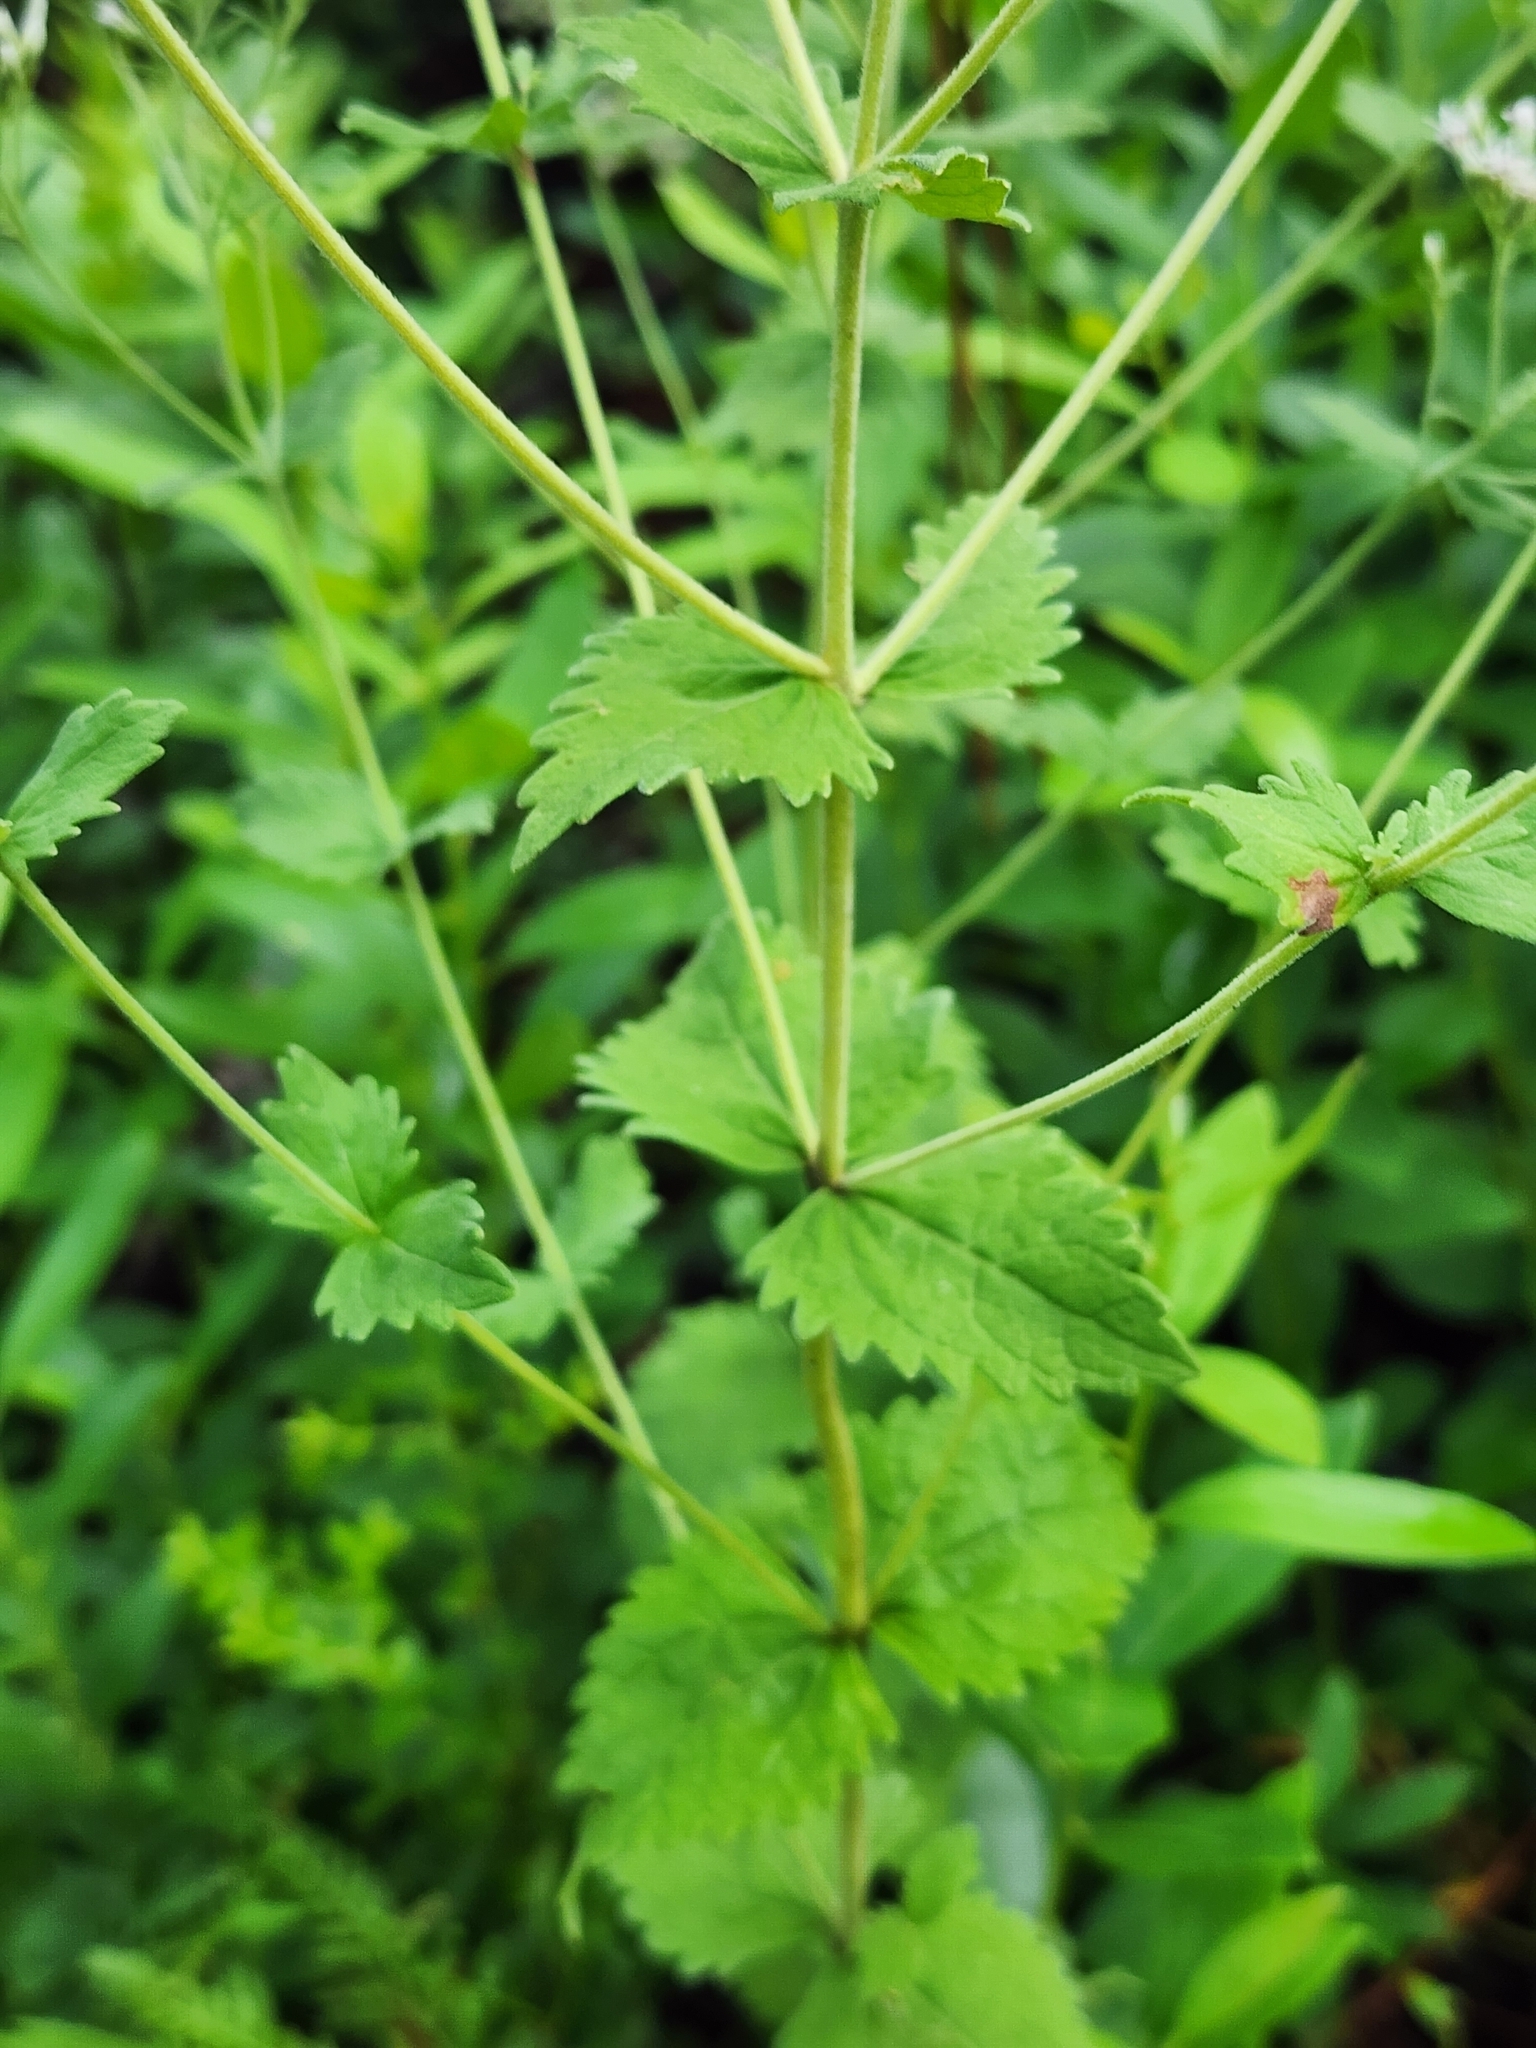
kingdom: Plantae
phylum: Tracheophyta
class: Magnoliopsida
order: Asterales
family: Asteraceae
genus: Eupatorium
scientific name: Eupatorium rotundifolium
